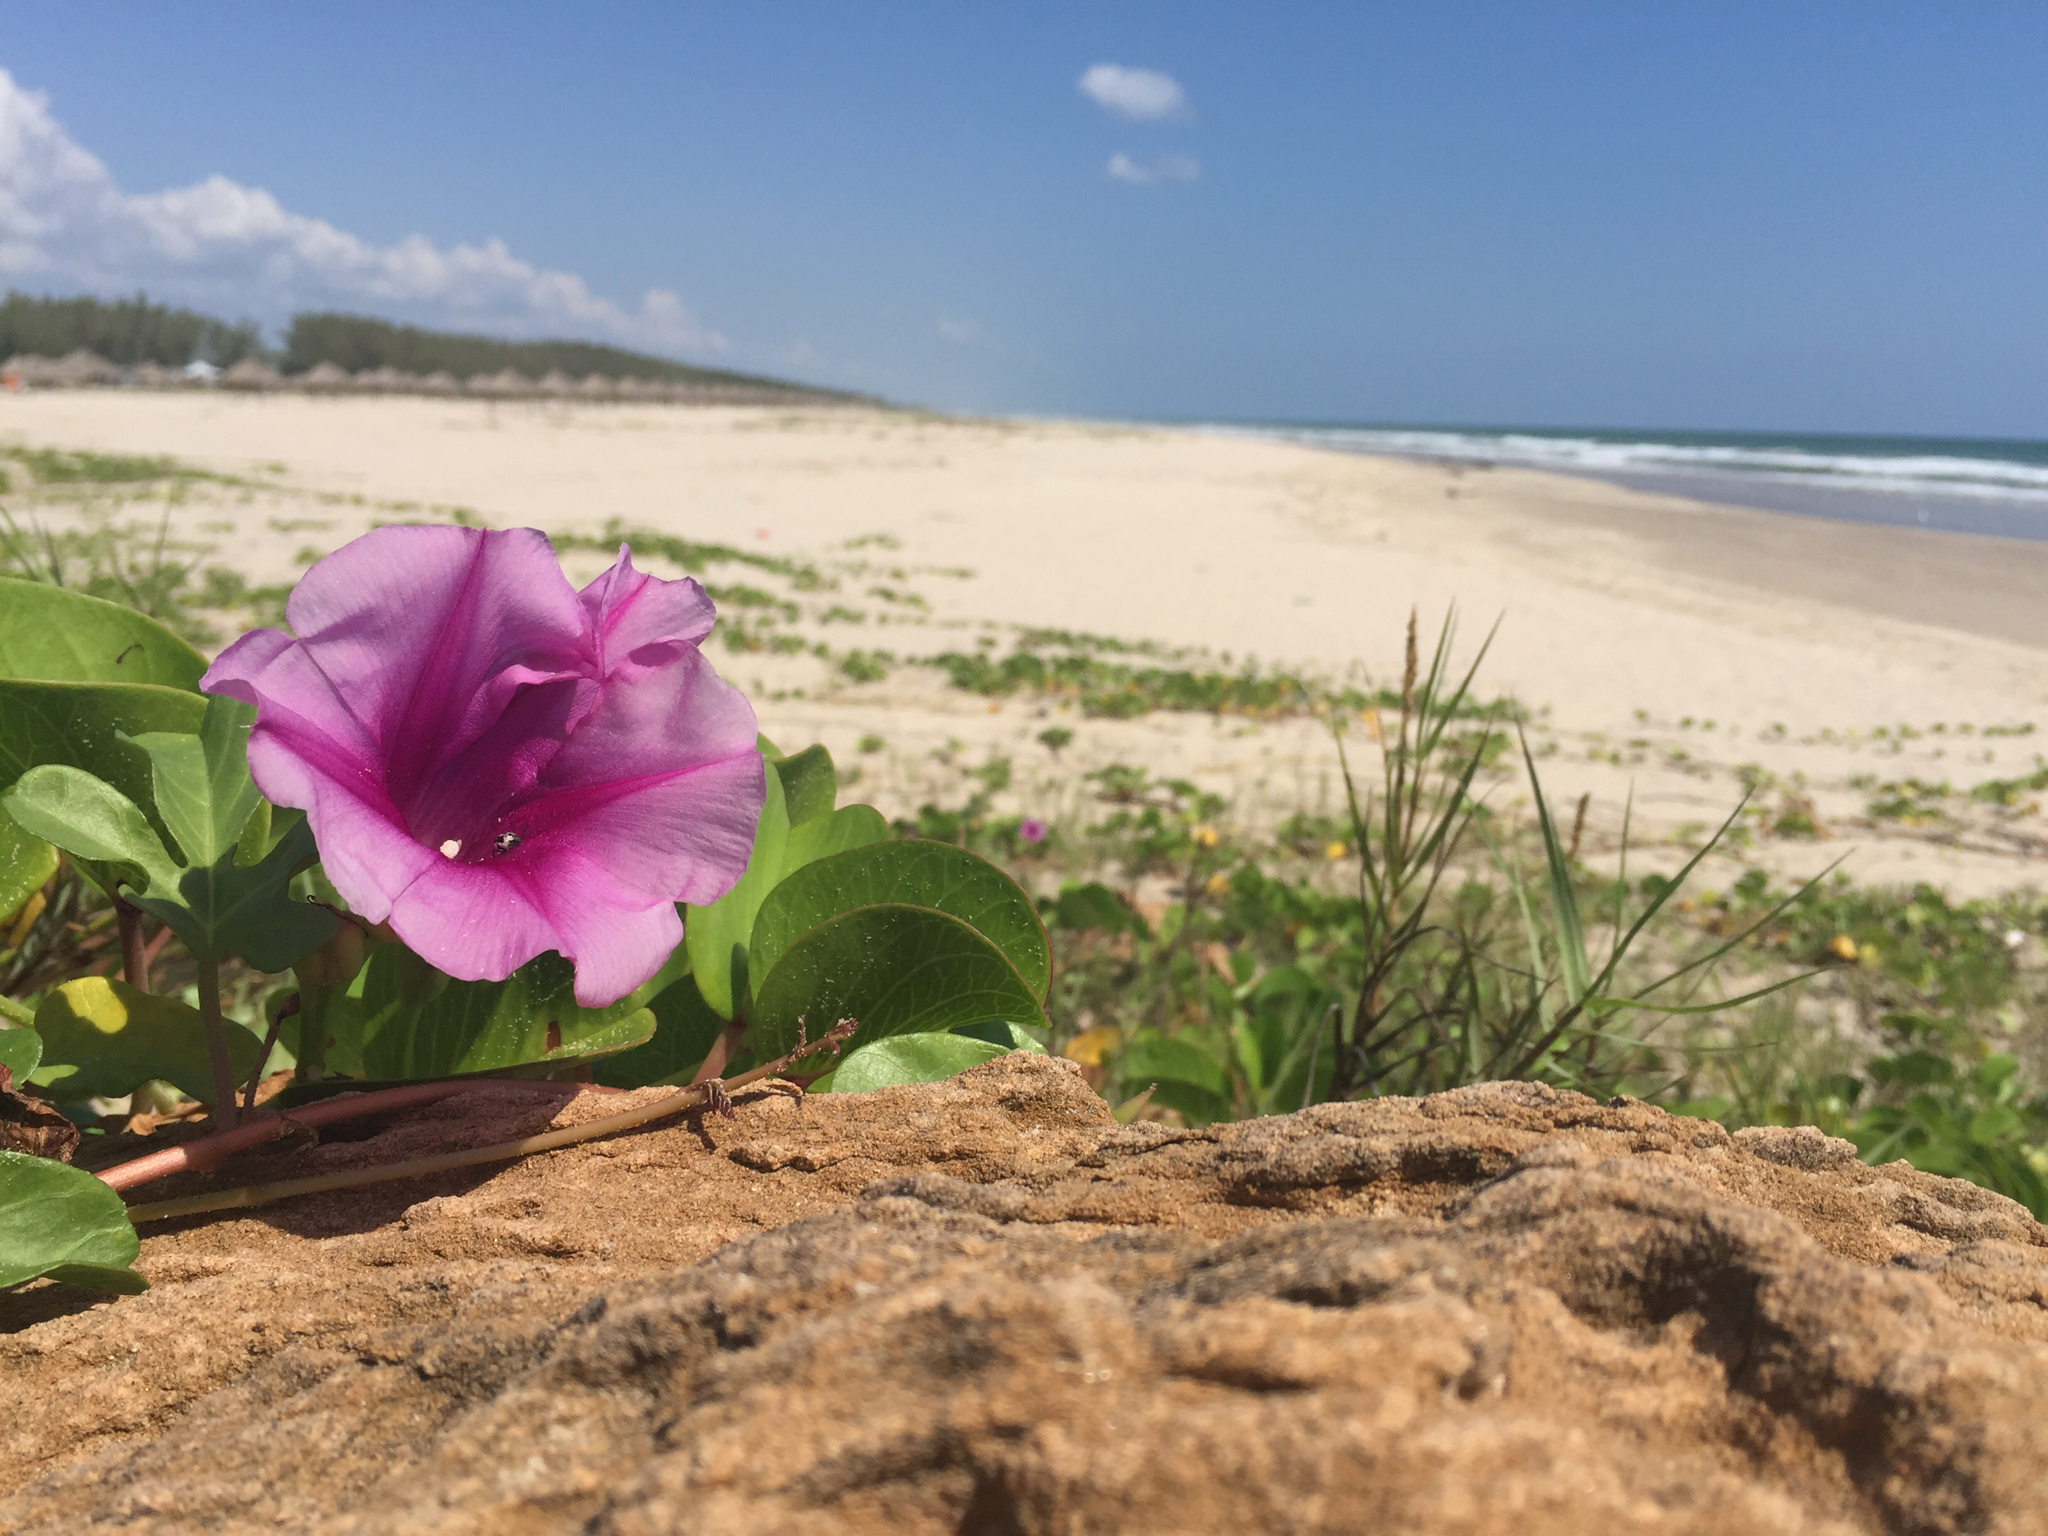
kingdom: Plantae
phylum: Tracheophyta
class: Magnoliopsida
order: Solanales
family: Convolvulaceae
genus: Ipomoea
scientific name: Ipomoea pes-caprae
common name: Beach morning glory
